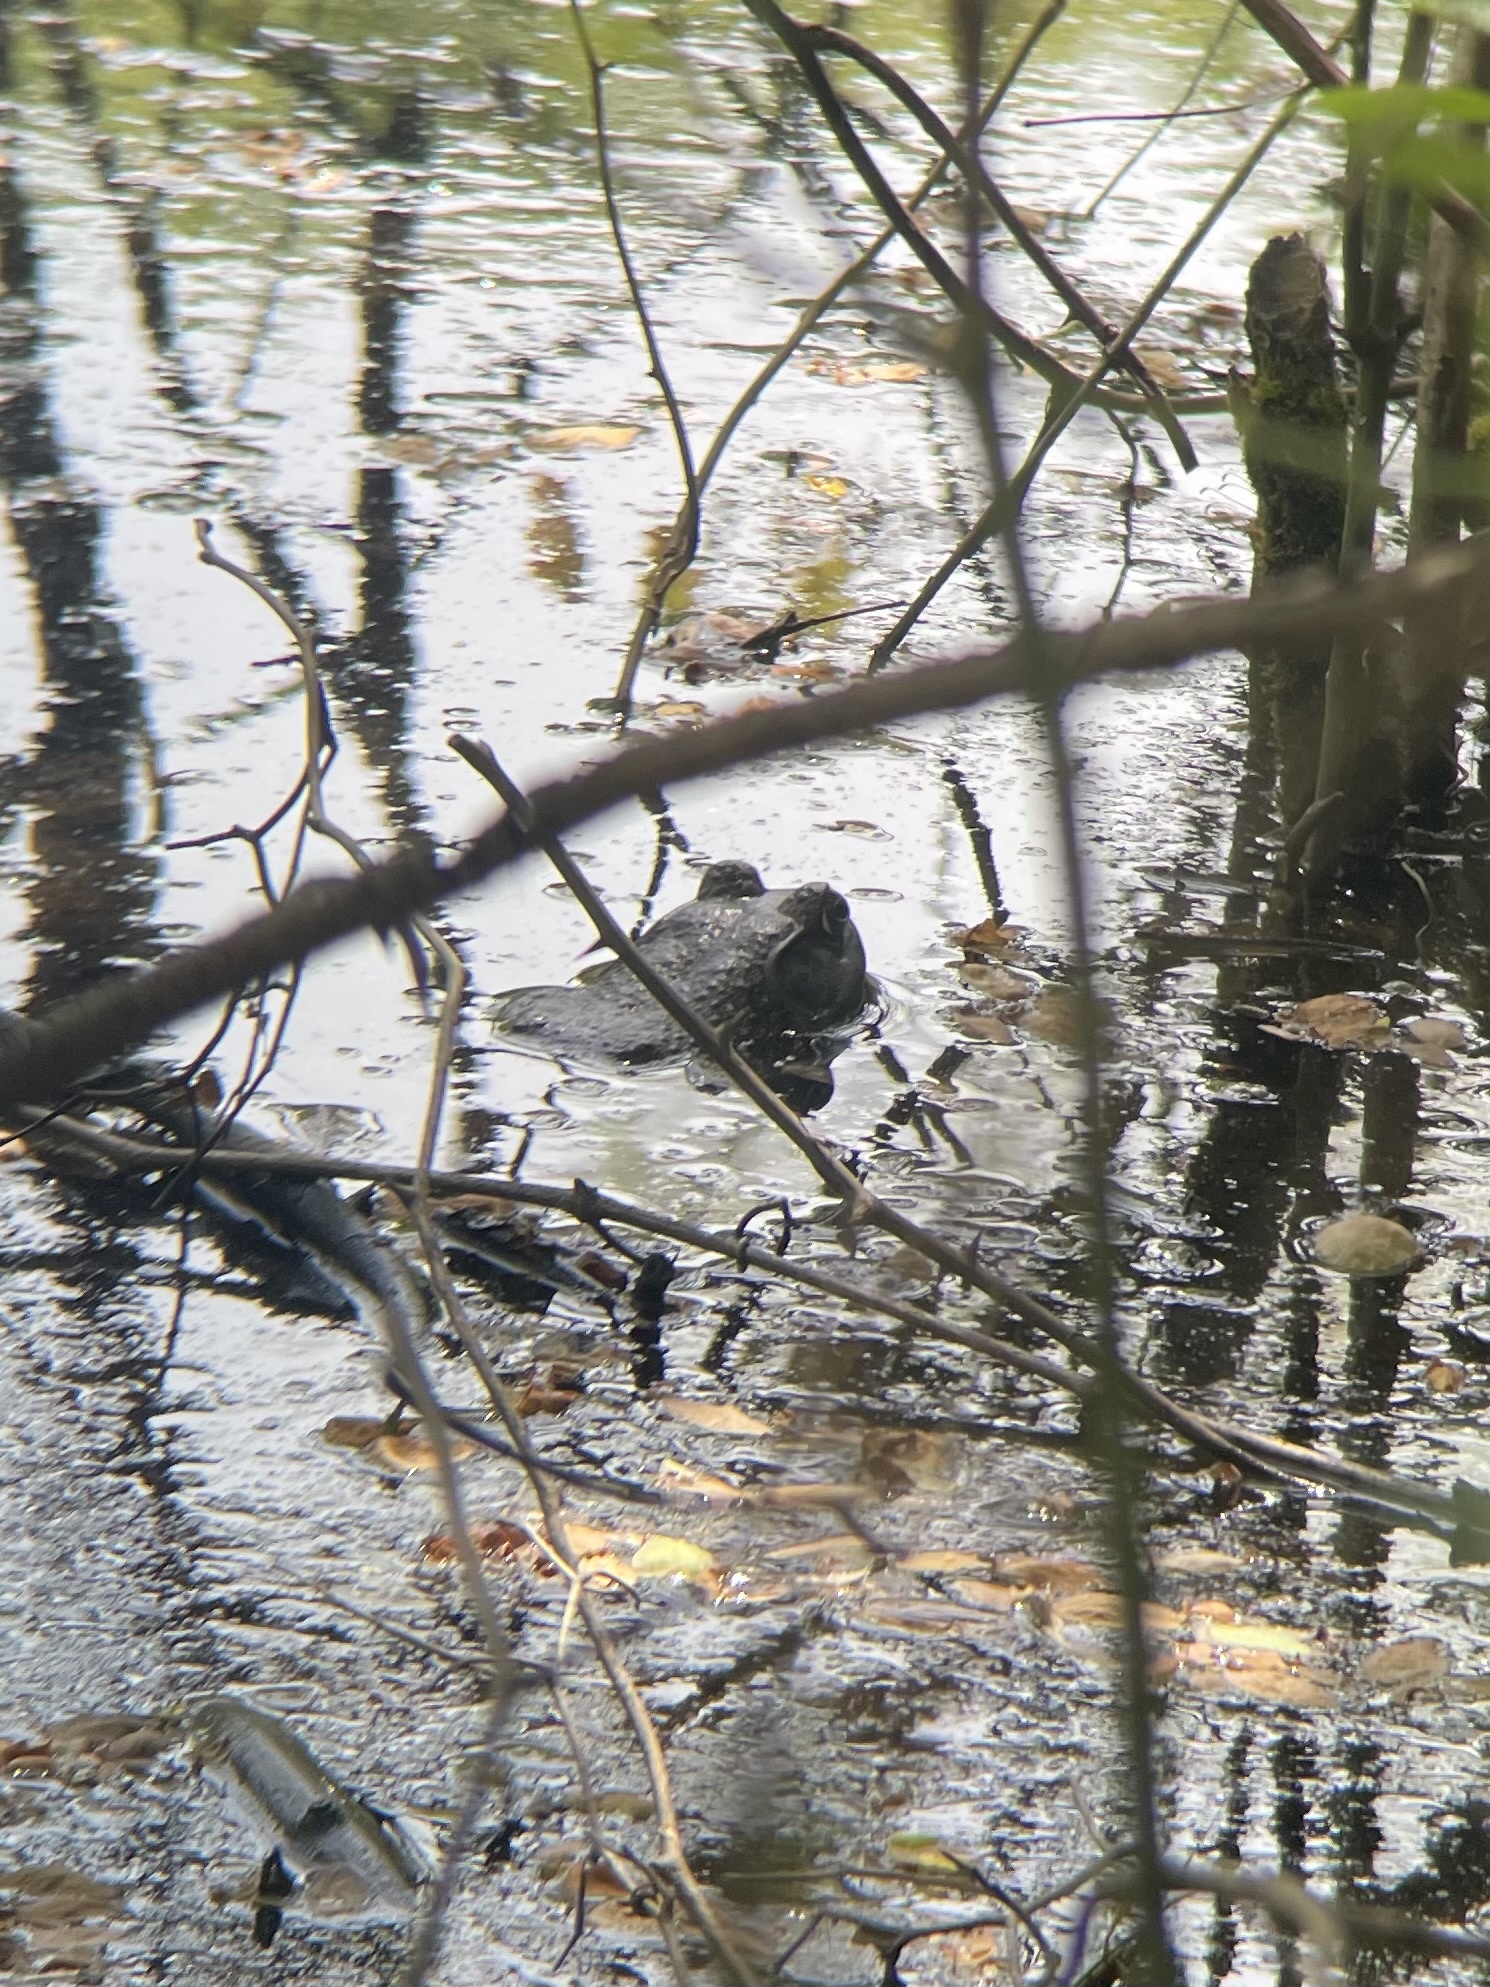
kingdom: Animalia
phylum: Chordata
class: Amphibia
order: Anura
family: Ranidae
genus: Lithobates
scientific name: Lithobates catesbeianus
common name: American bullfrog
